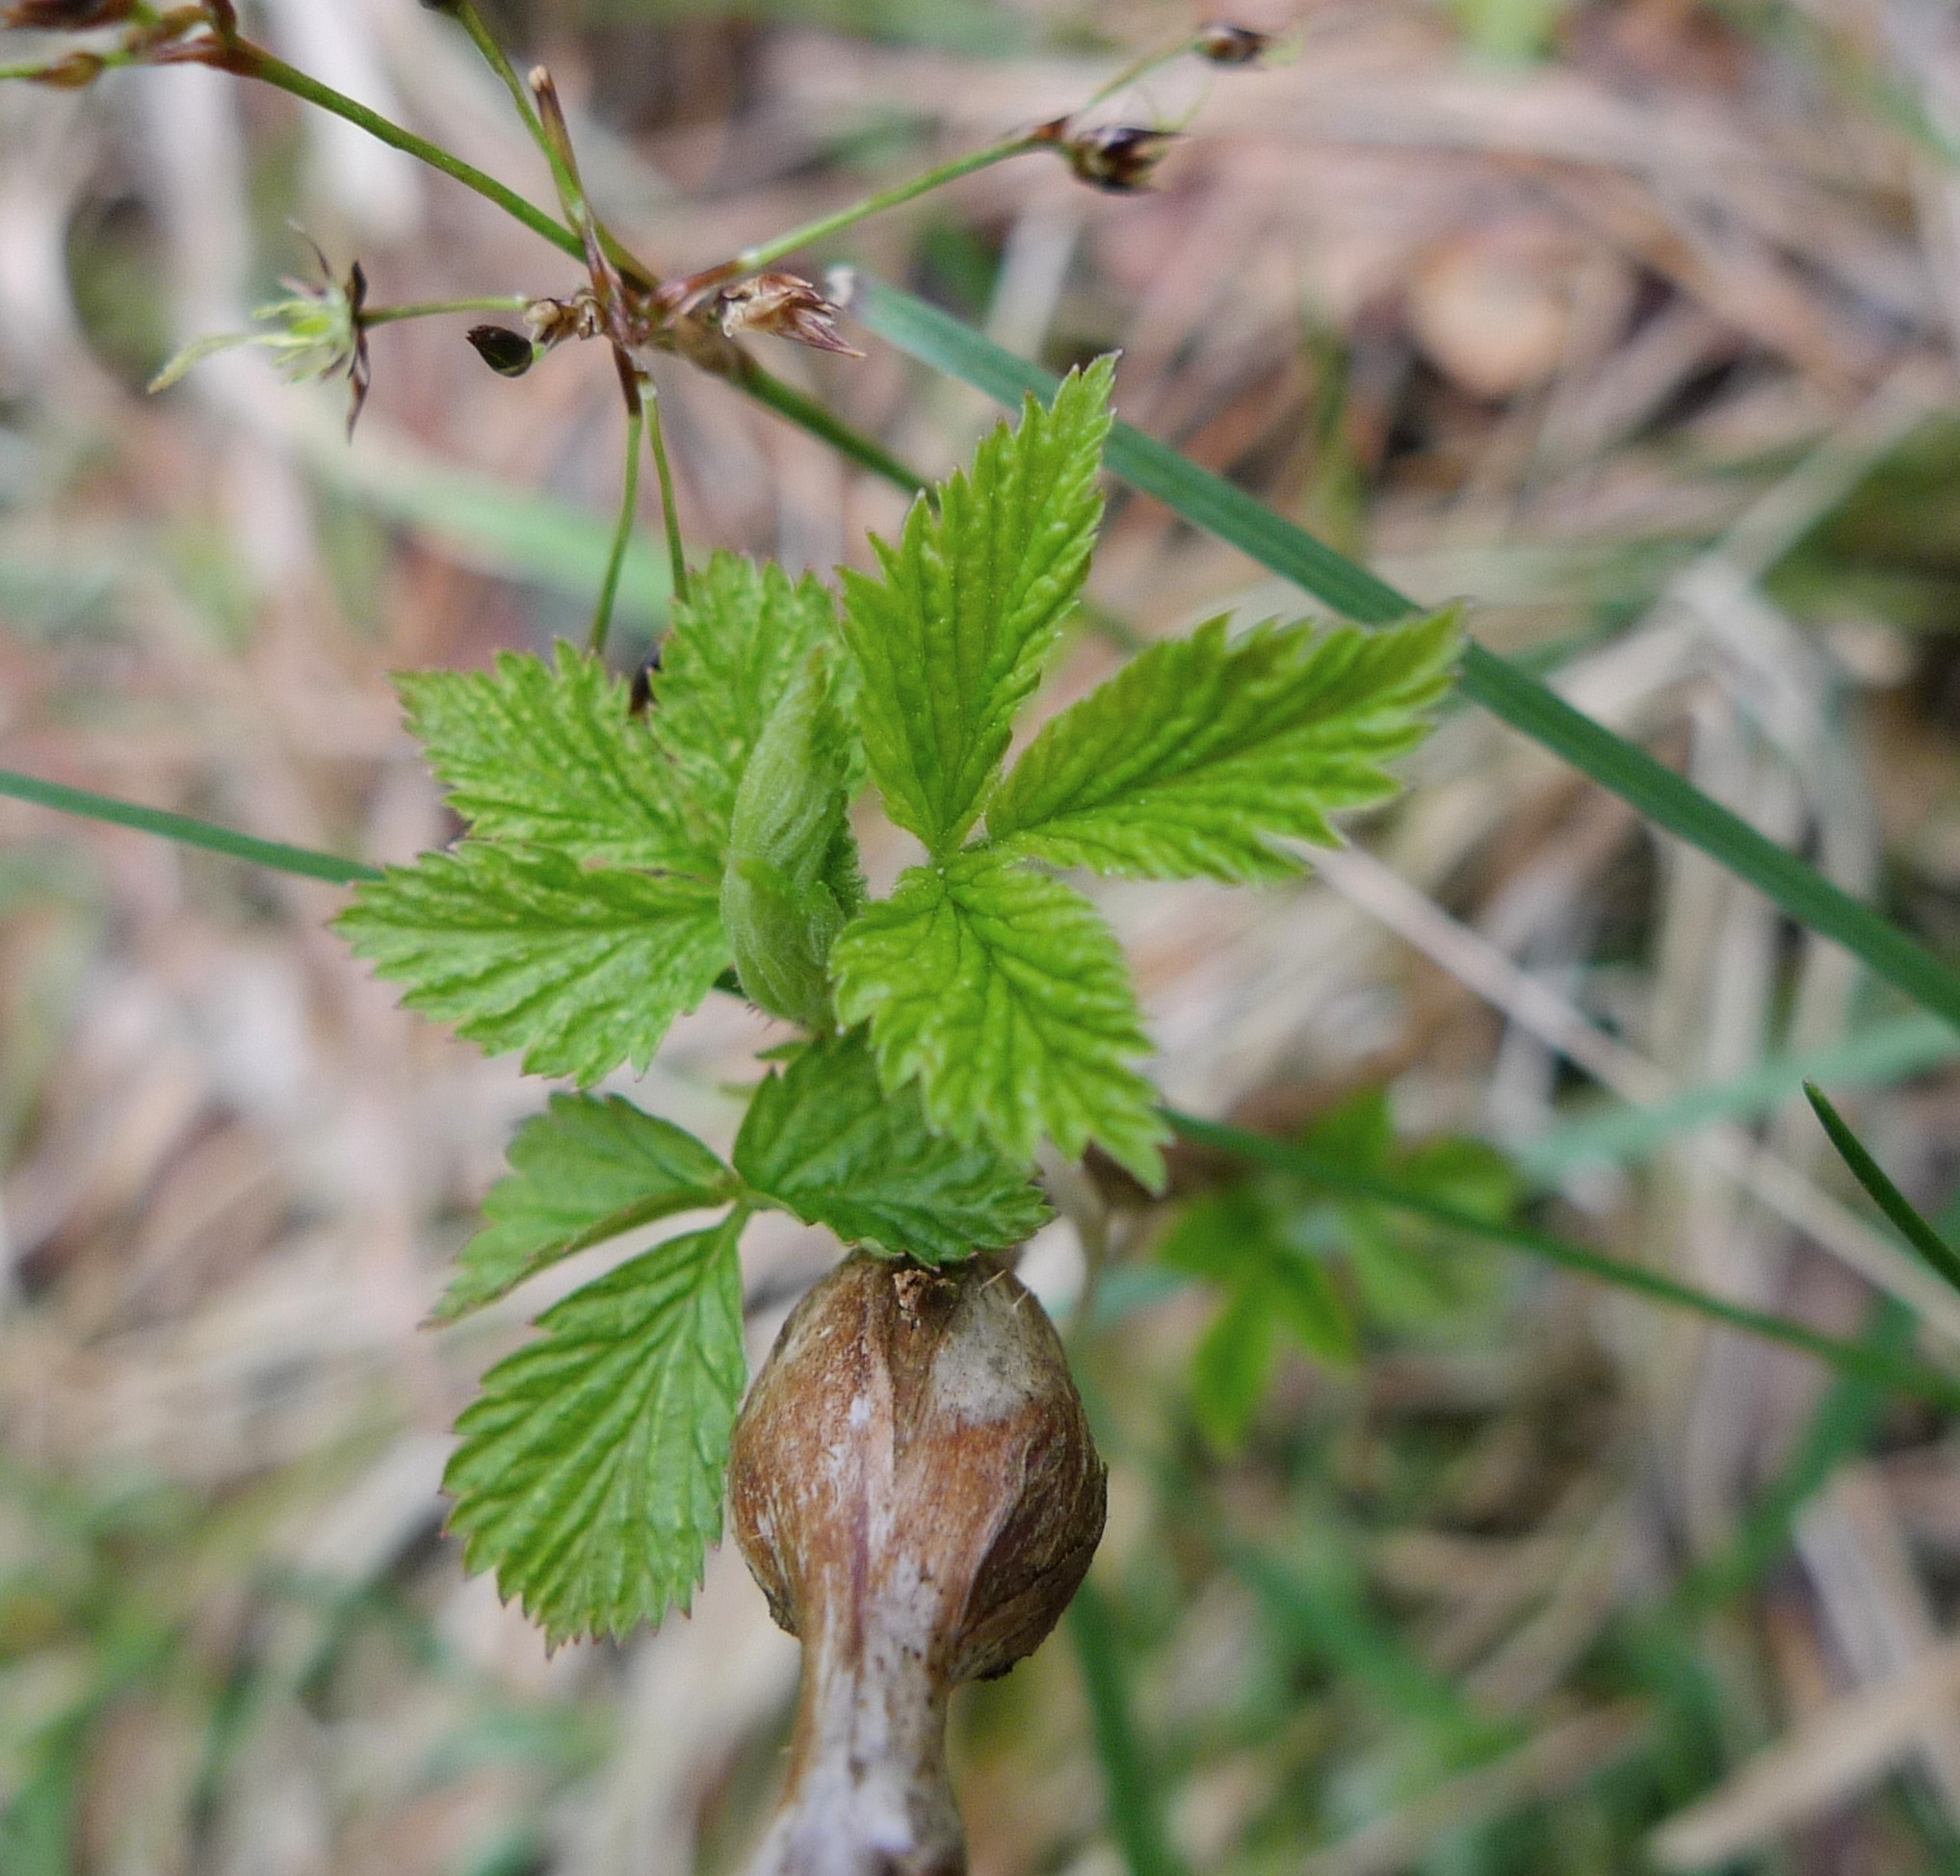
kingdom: Animalia
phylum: Arthropoda
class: Insecta
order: Diptera
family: Cecidomyiidae
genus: Lasioptera
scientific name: Lasioptera rubi
